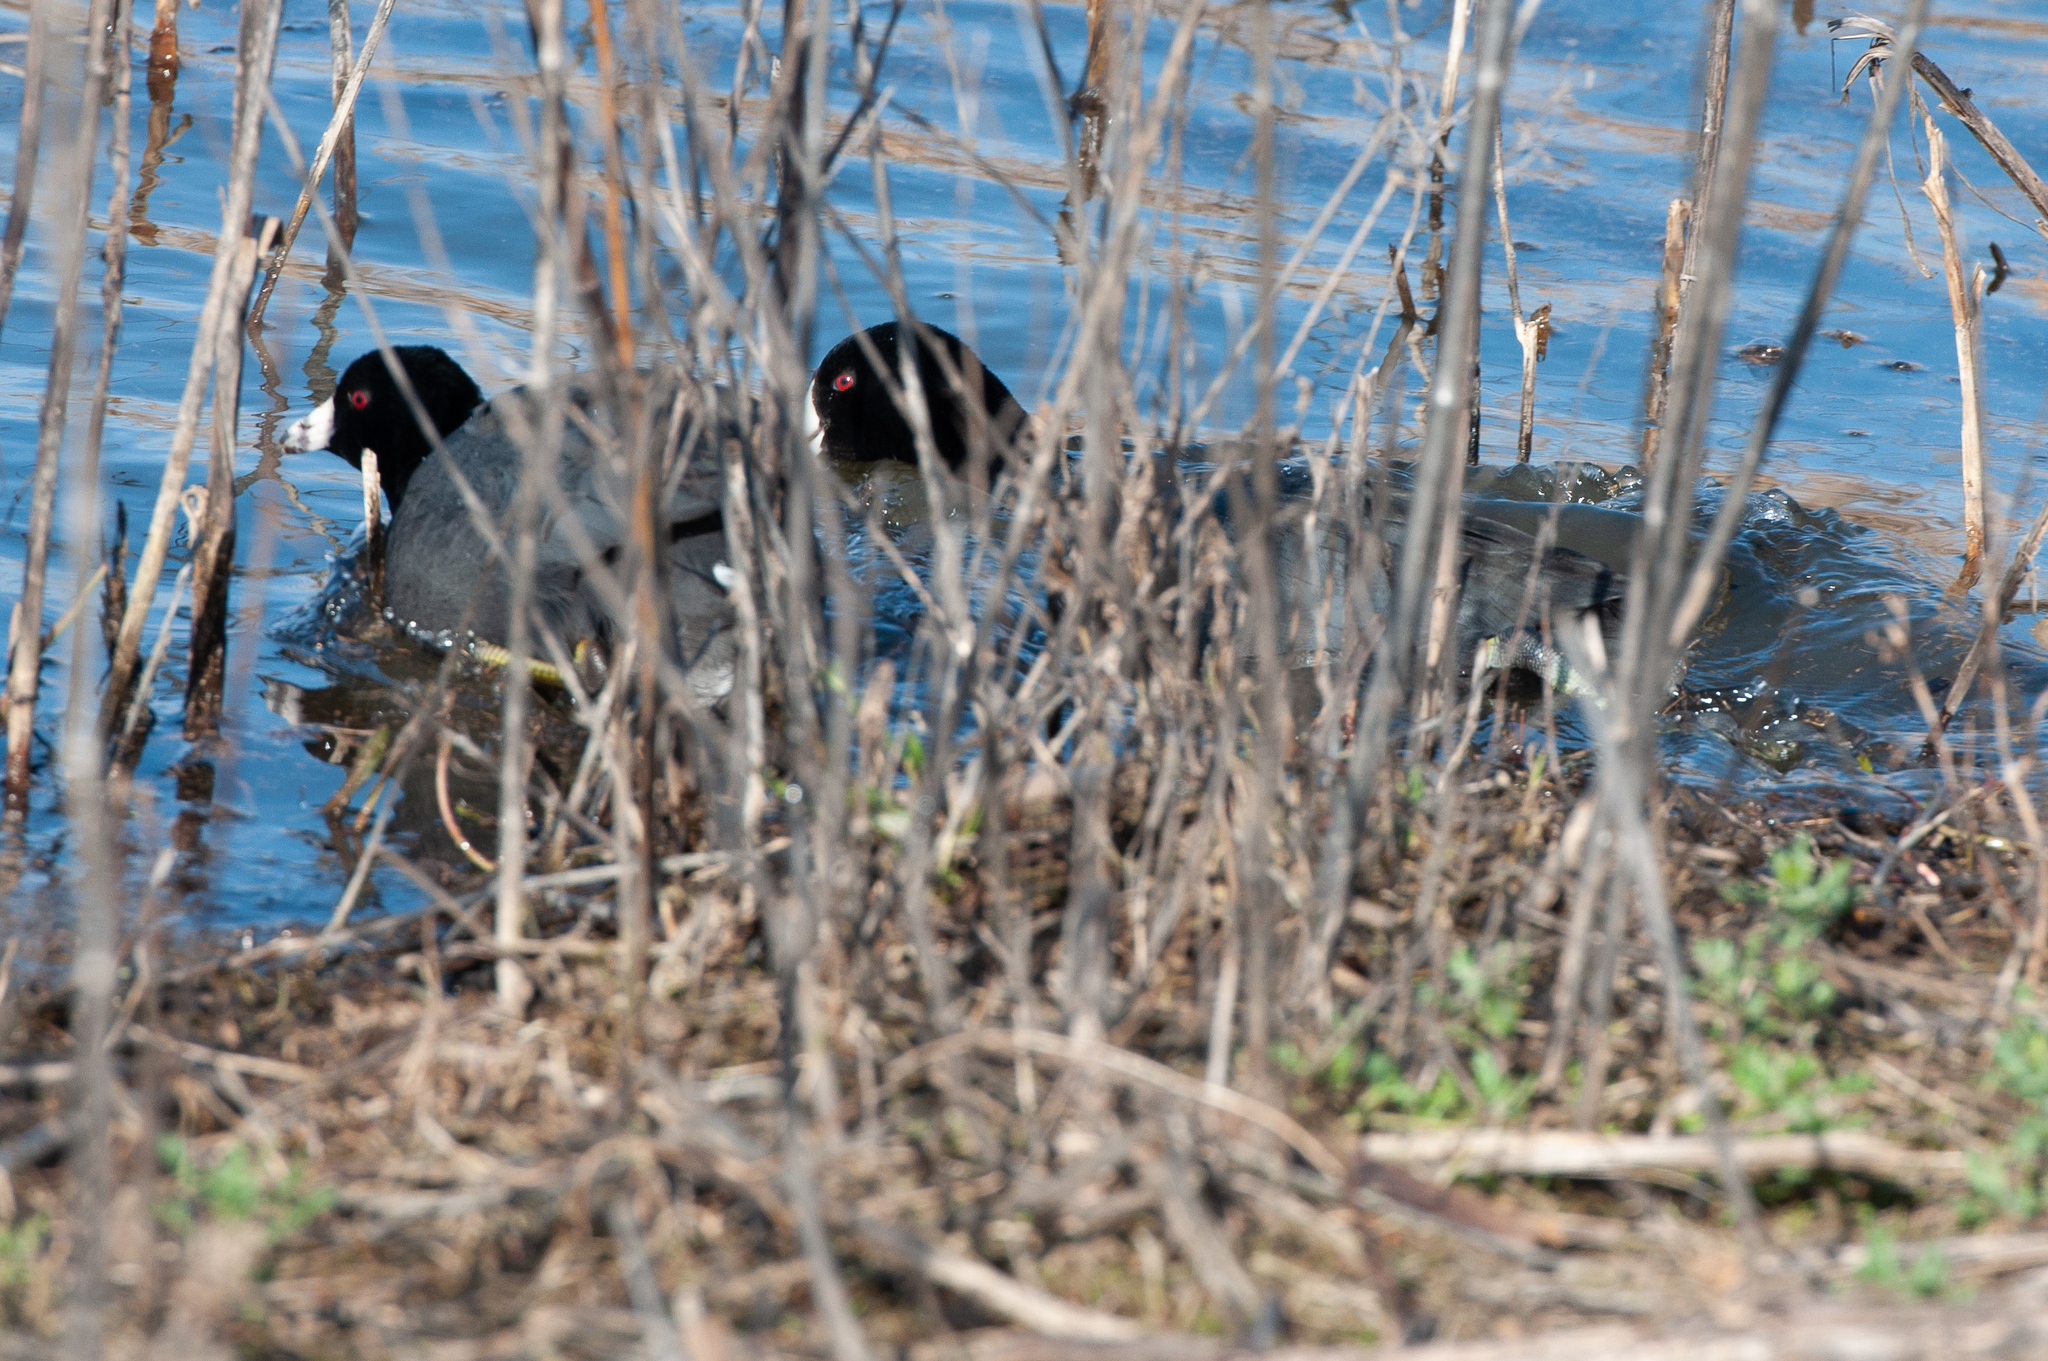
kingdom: Animalia
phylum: Chordata
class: Aves
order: Gruiformes
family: Rallidae
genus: Fulica
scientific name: Fulica americana
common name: American coot
